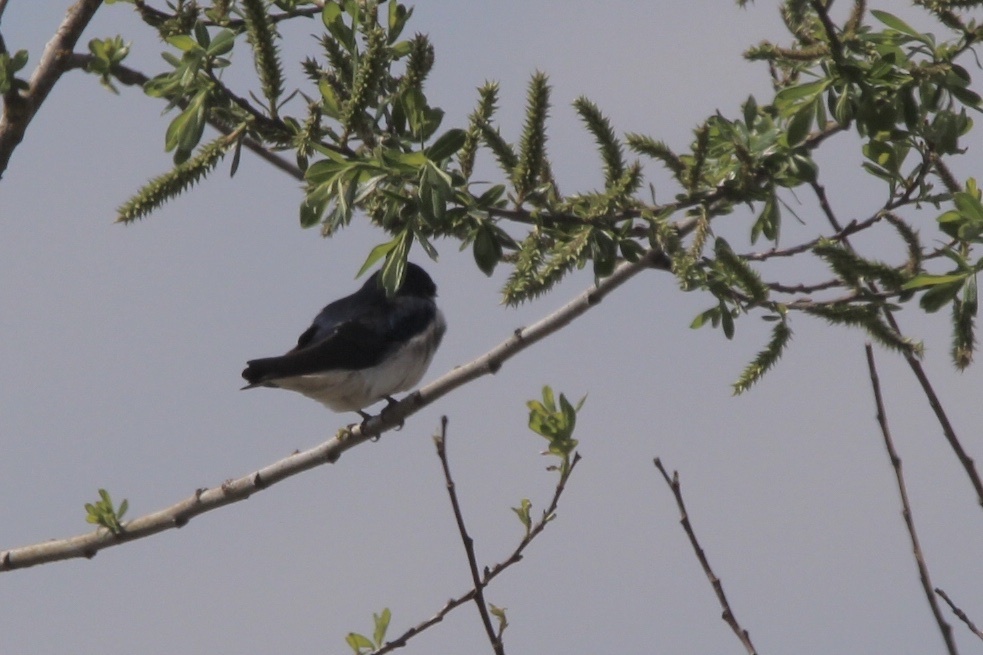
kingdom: Animalia
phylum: Chordata
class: Aves
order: Passeriformes
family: Hirundinidae
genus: Tachycineta
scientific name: Tachycineta bicolor
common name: Tree swallow
